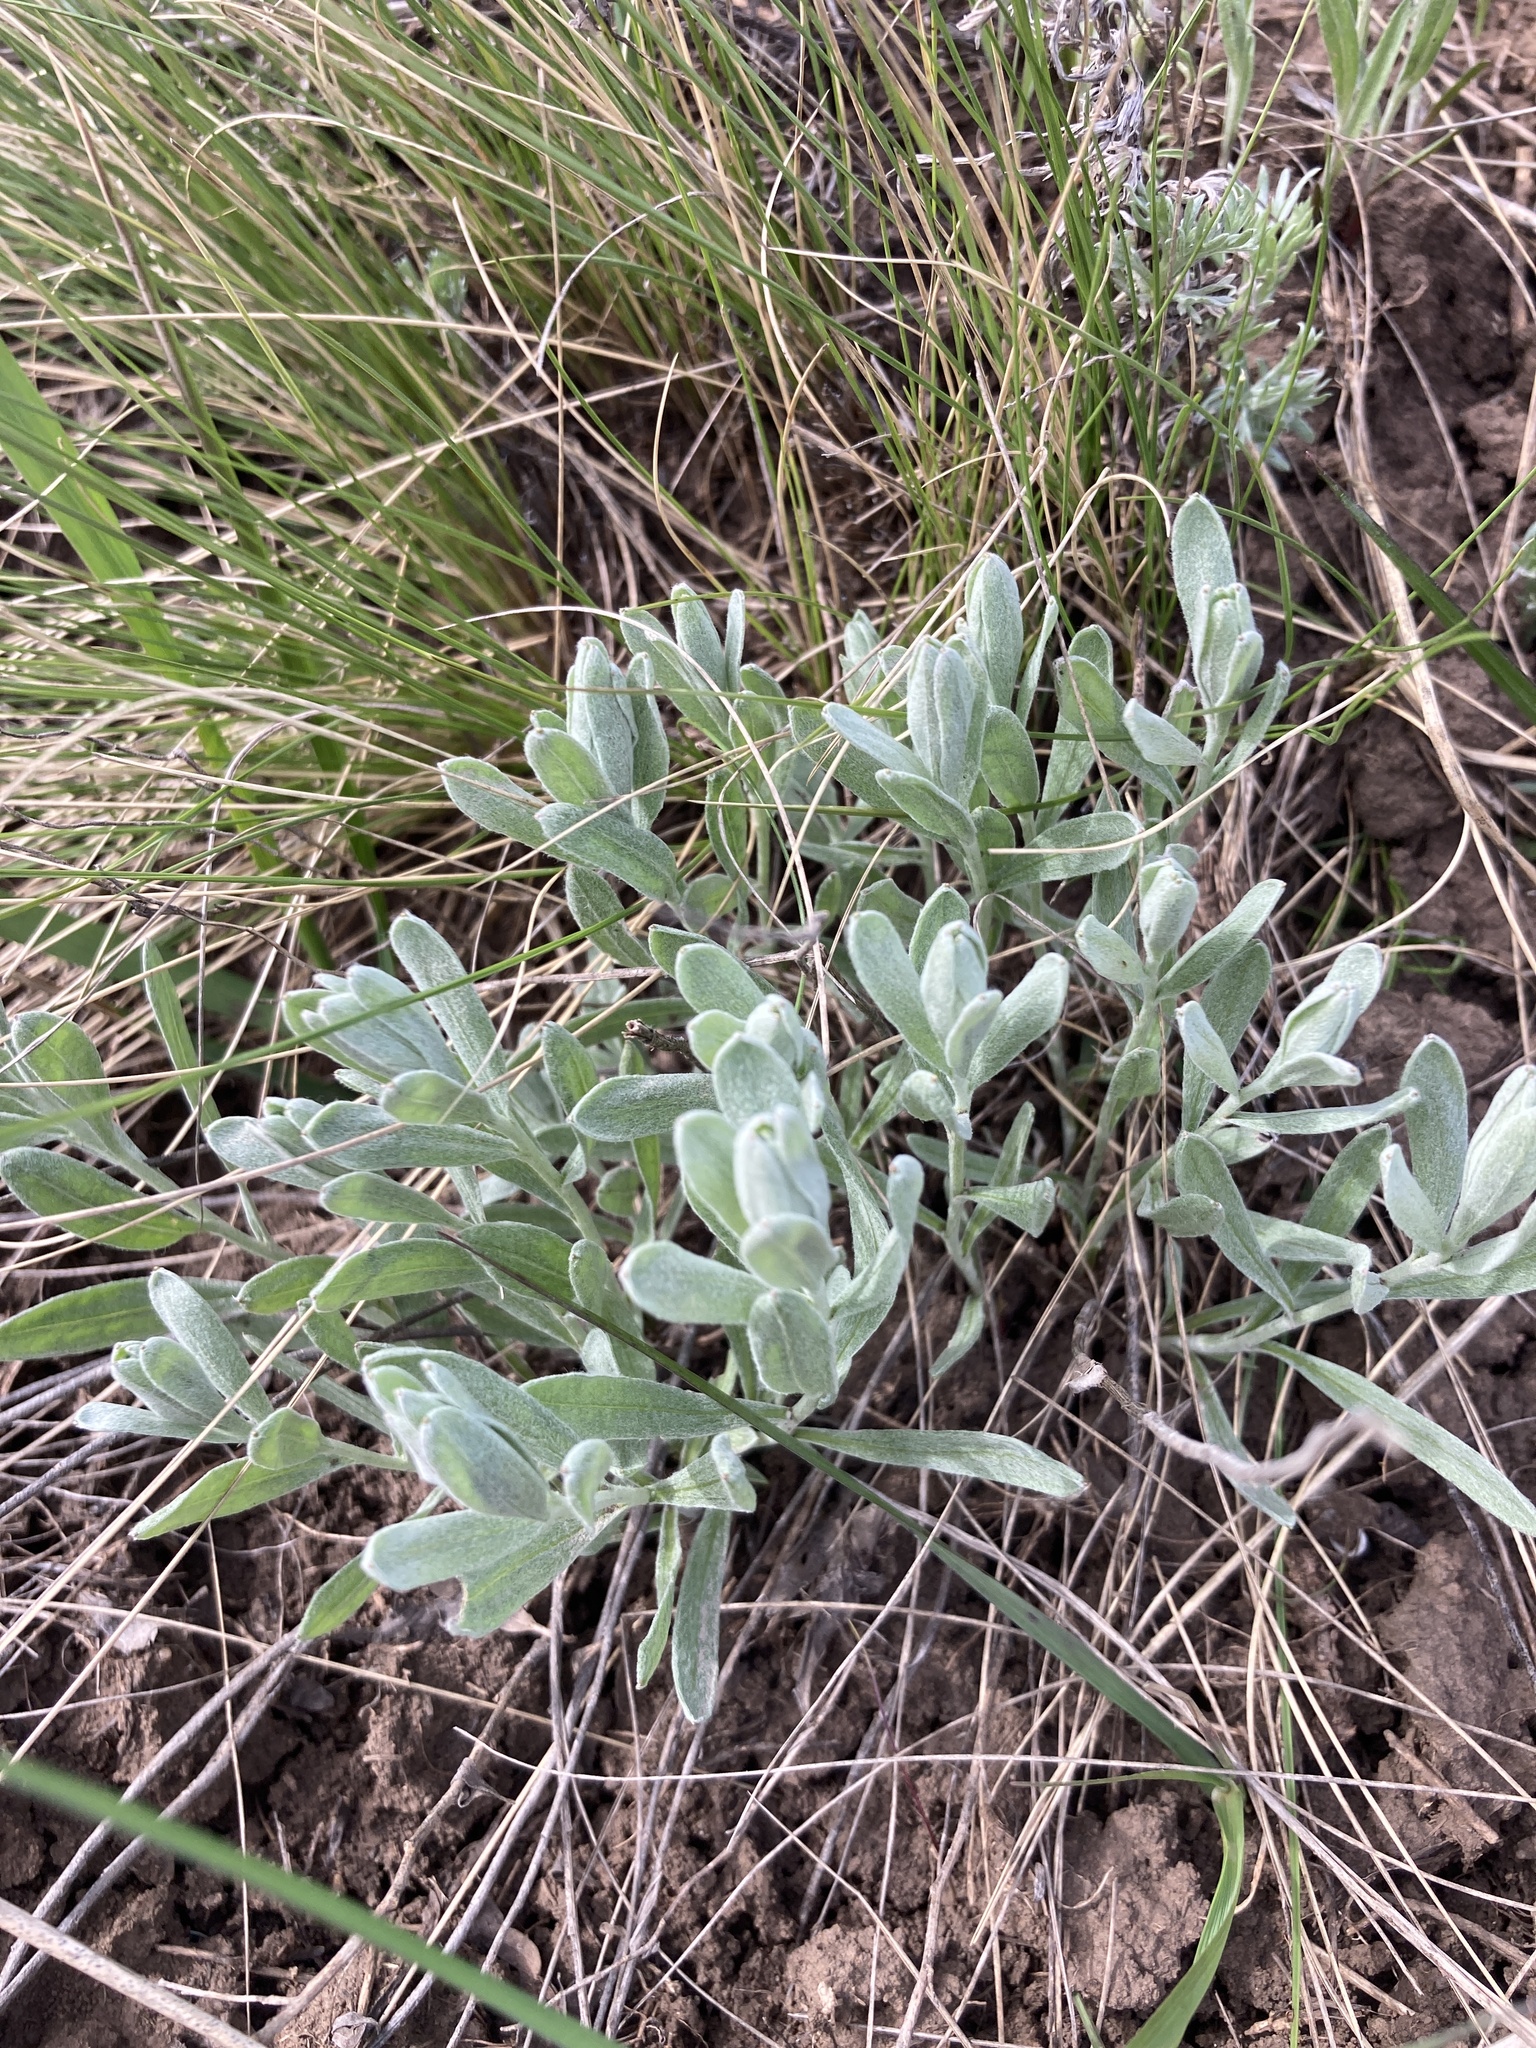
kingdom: Plantae
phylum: Tracheophyta
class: Magnoliopsida
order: Asterales
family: Asteraceae
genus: Galatella
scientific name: Galatella villosa
